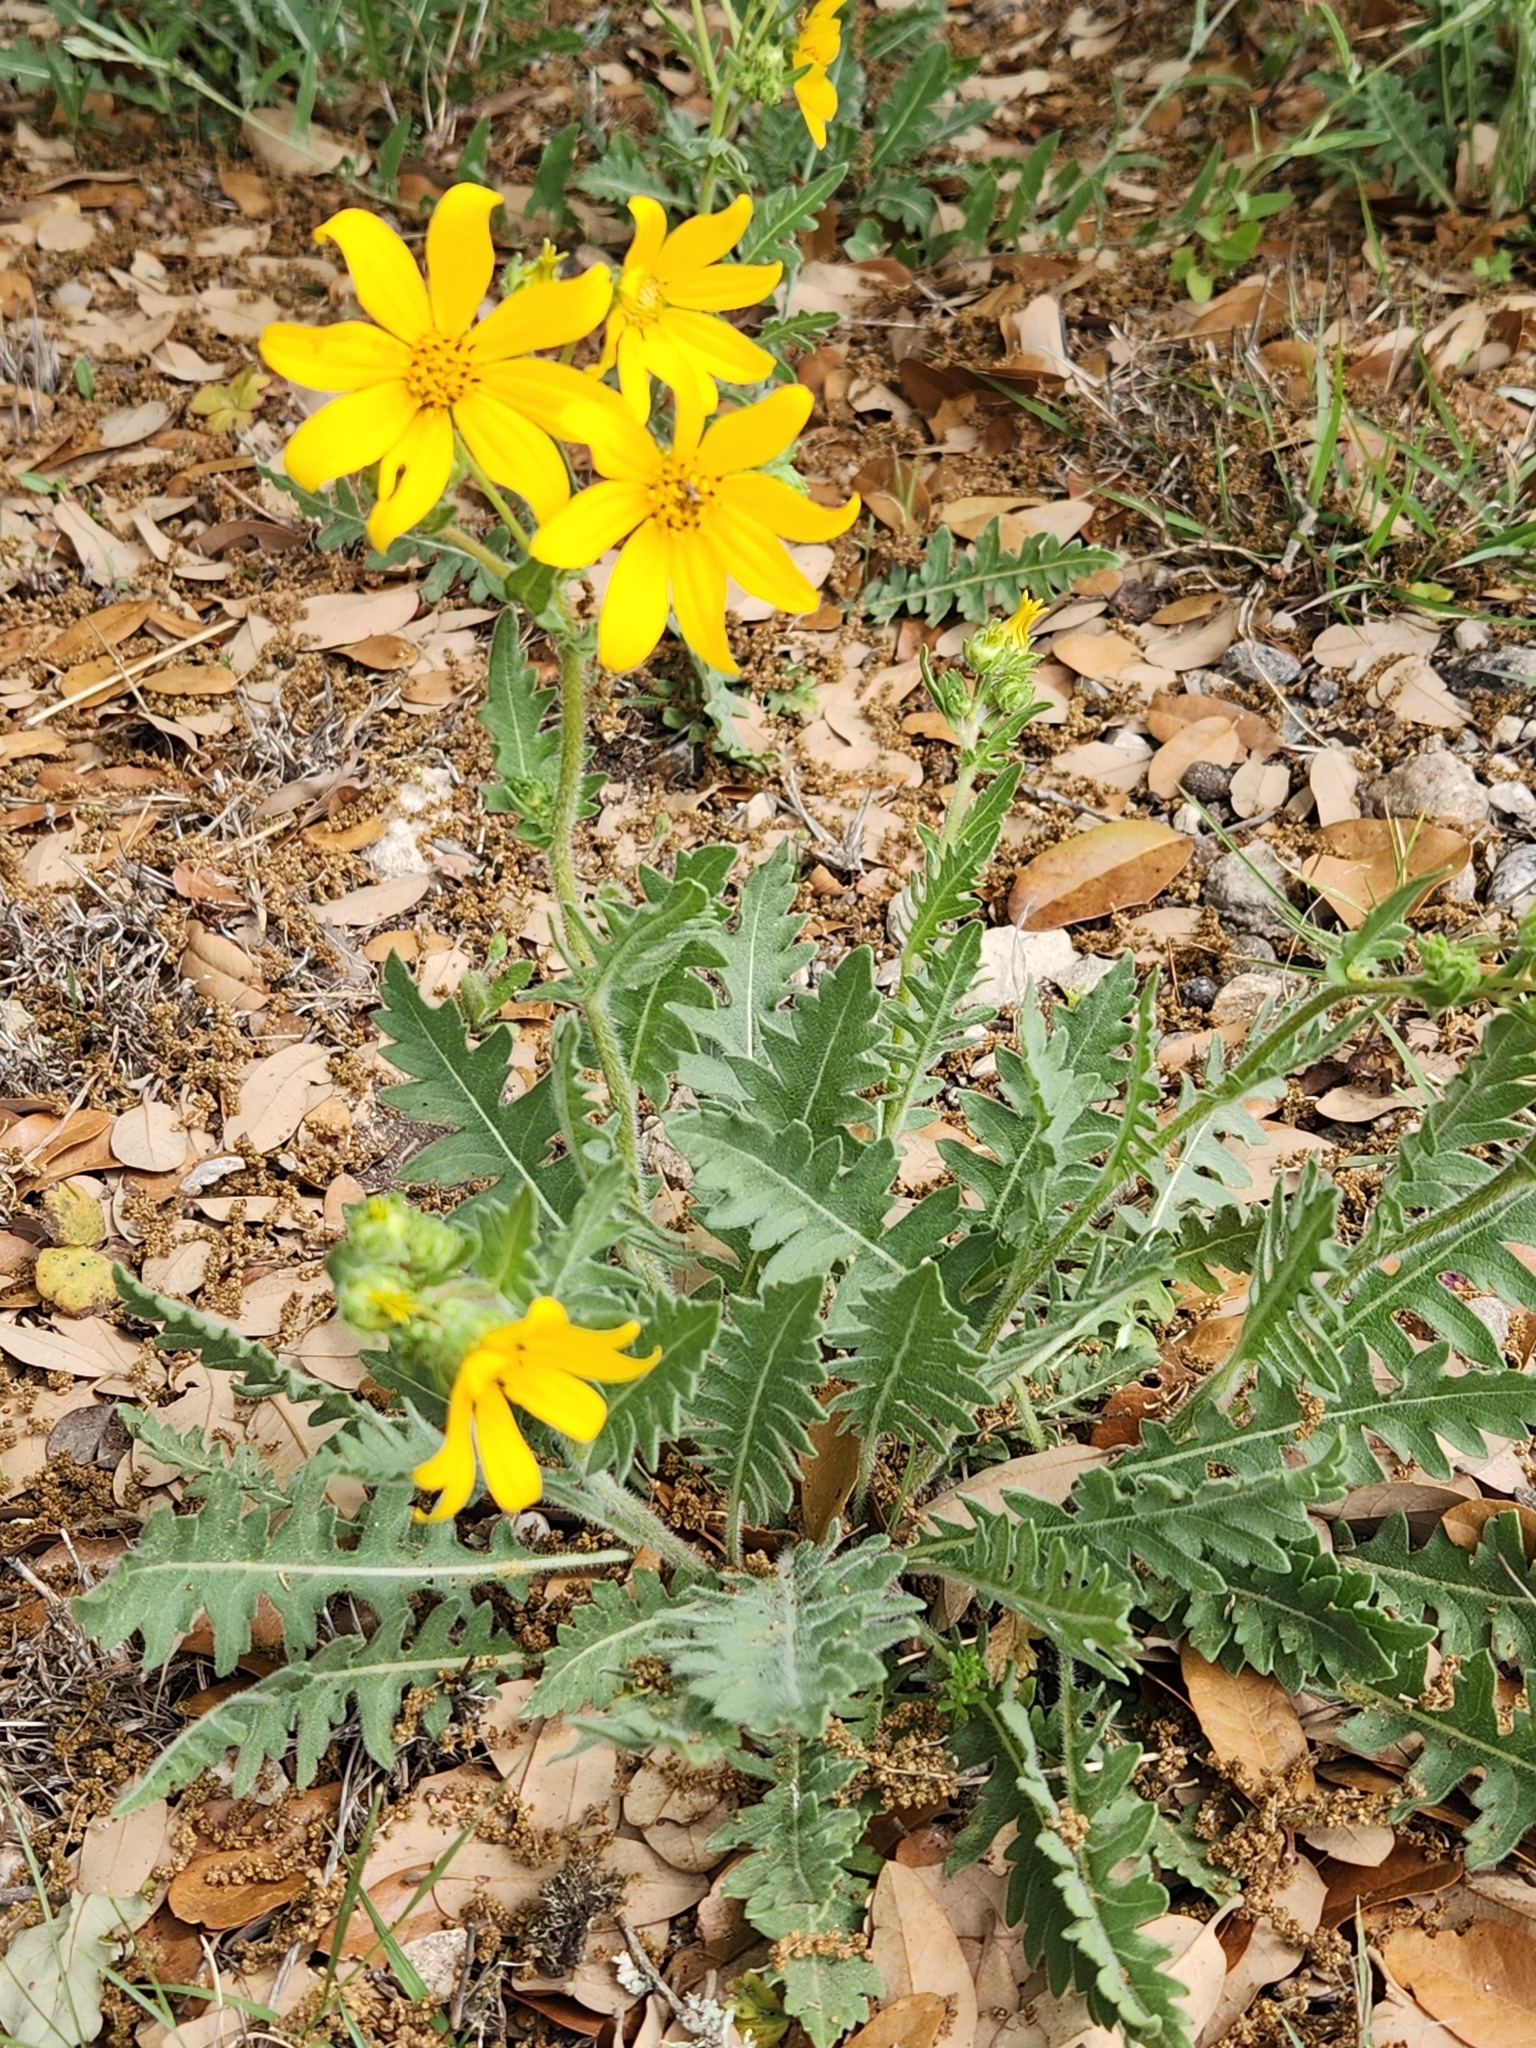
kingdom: Plantae
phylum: Tracheophyta
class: Magnoliopsida
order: Asterales
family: Asteraceae
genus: Engelmannia
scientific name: Engelmannia peristenia
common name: Engelmann's daisy
